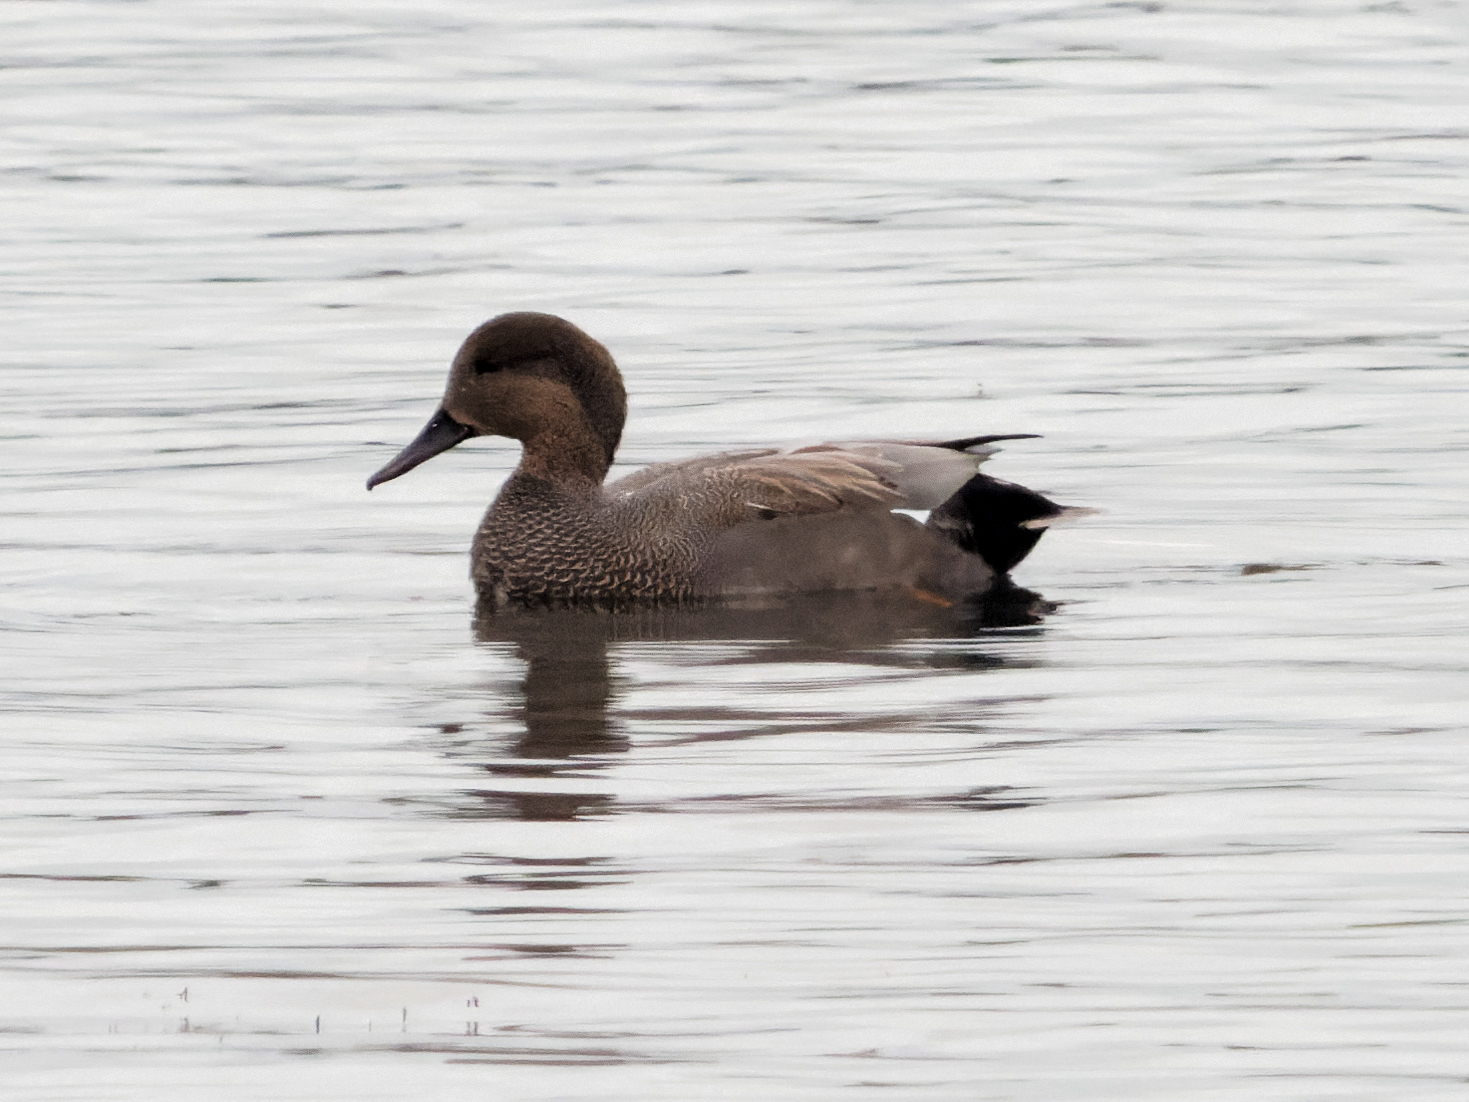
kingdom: Animalia
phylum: Chordata
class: Aves
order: Anseriformes
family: Anatidae
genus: Mareca
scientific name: Mareca strepera
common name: Gadwall
